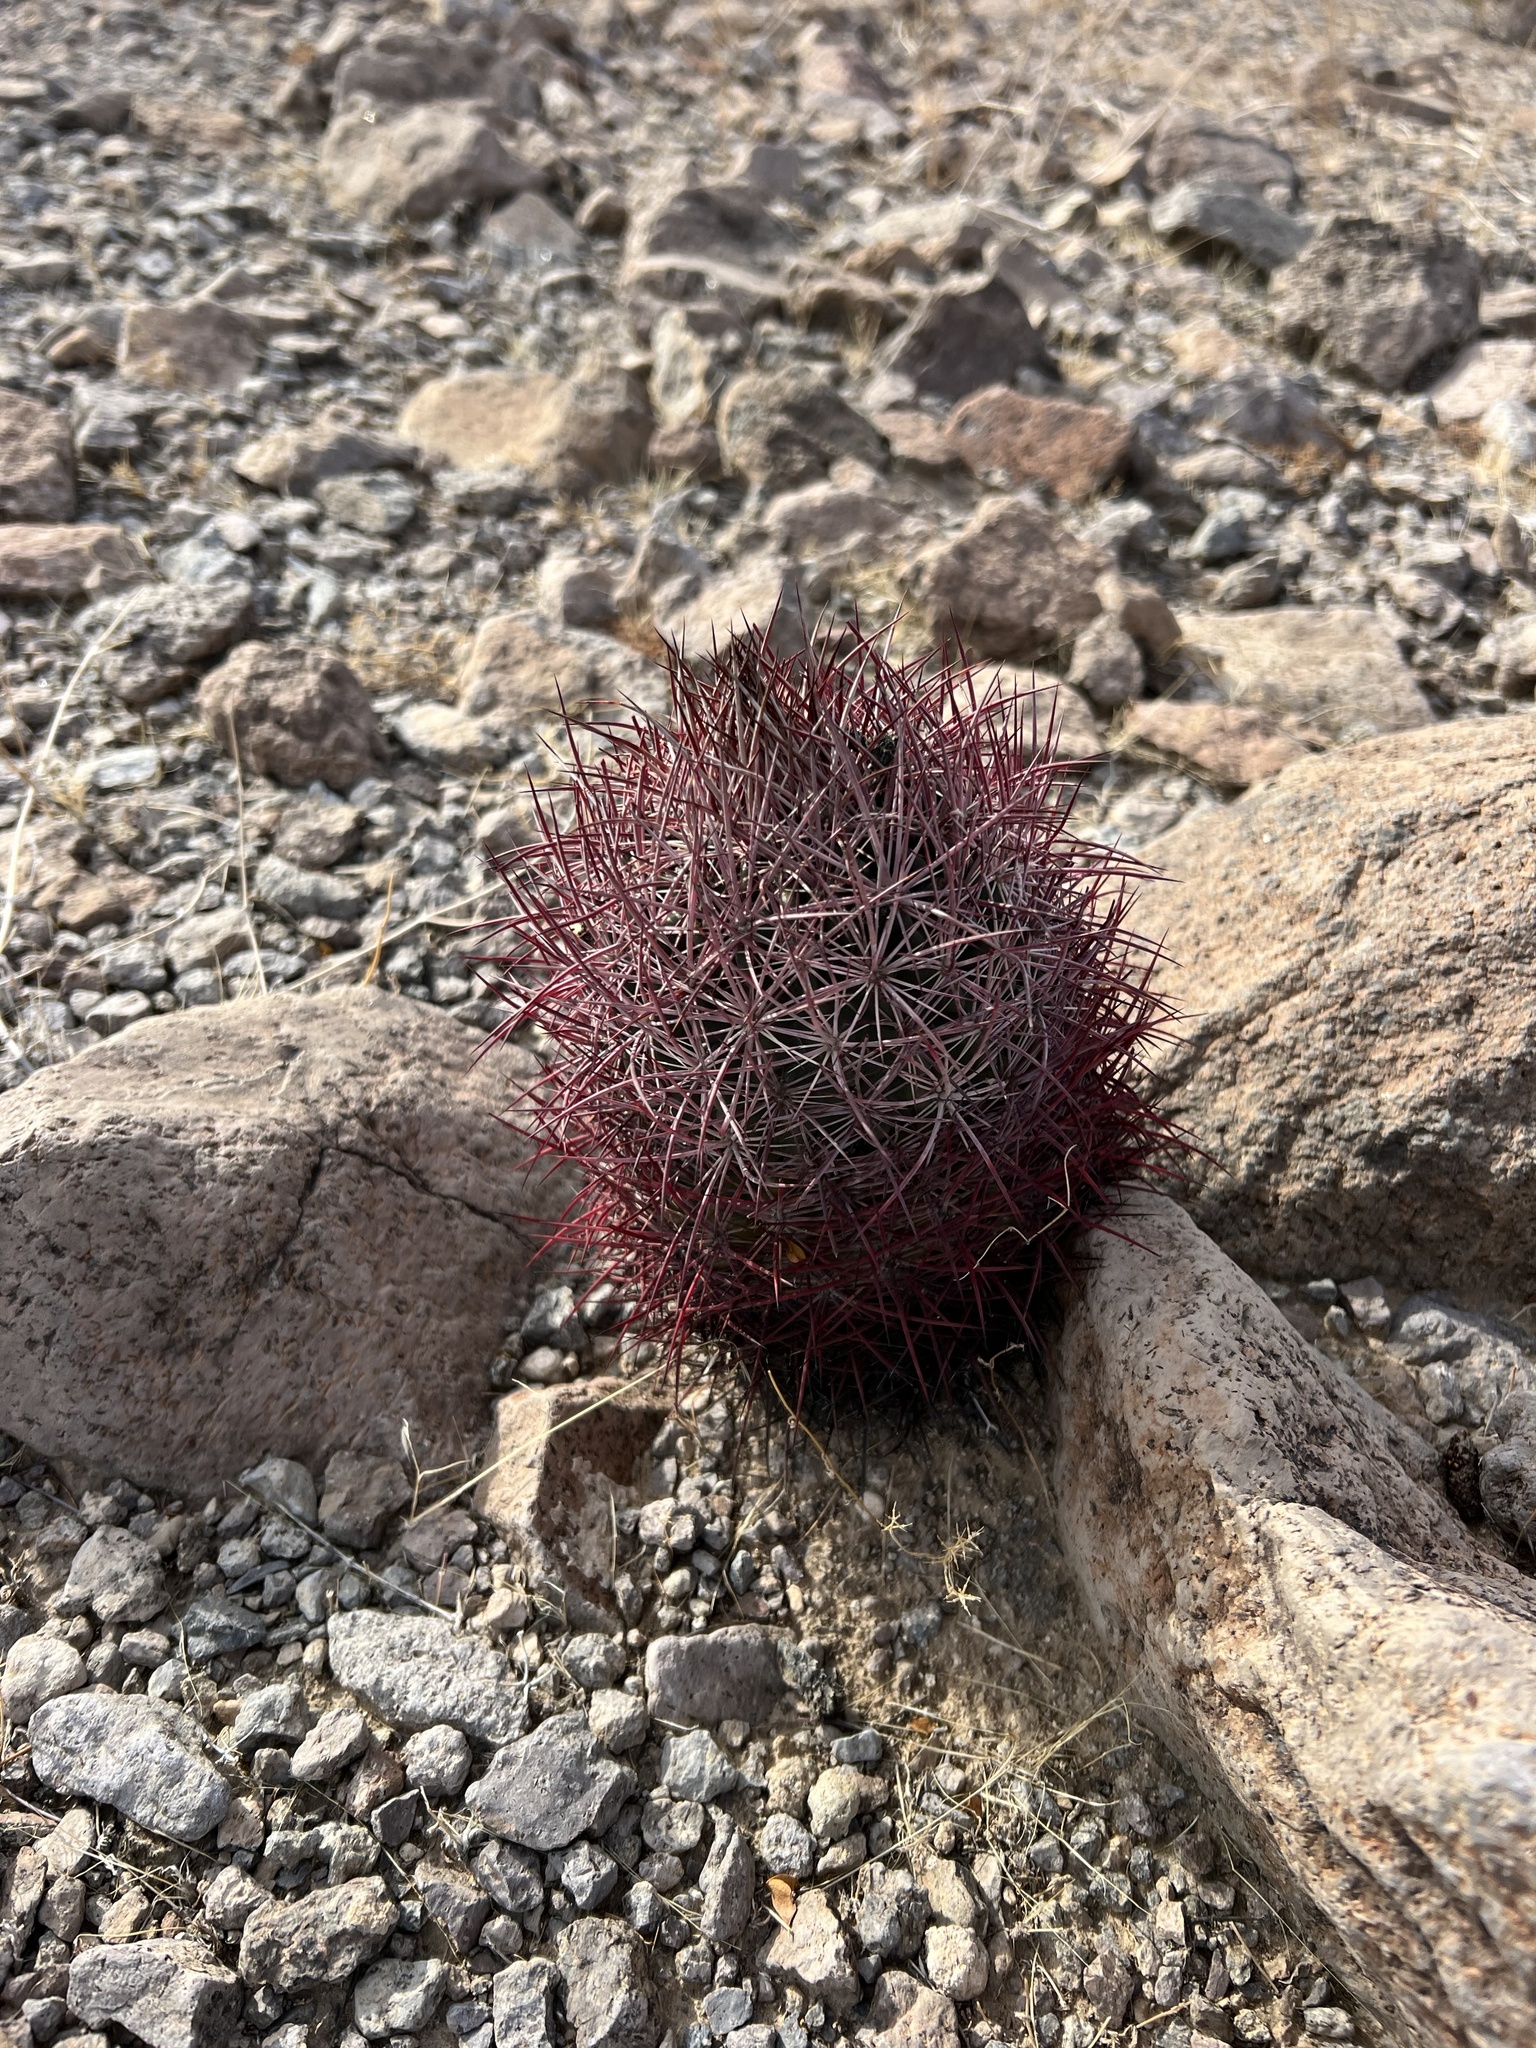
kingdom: Plantae
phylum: Tracheophyta
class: Magnoliopsida
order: Caryophyllales
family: Cactaceae
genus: Sclerocactus
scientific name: Sclerocactus johnsonii
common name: Eight-spine fishhook cactus
